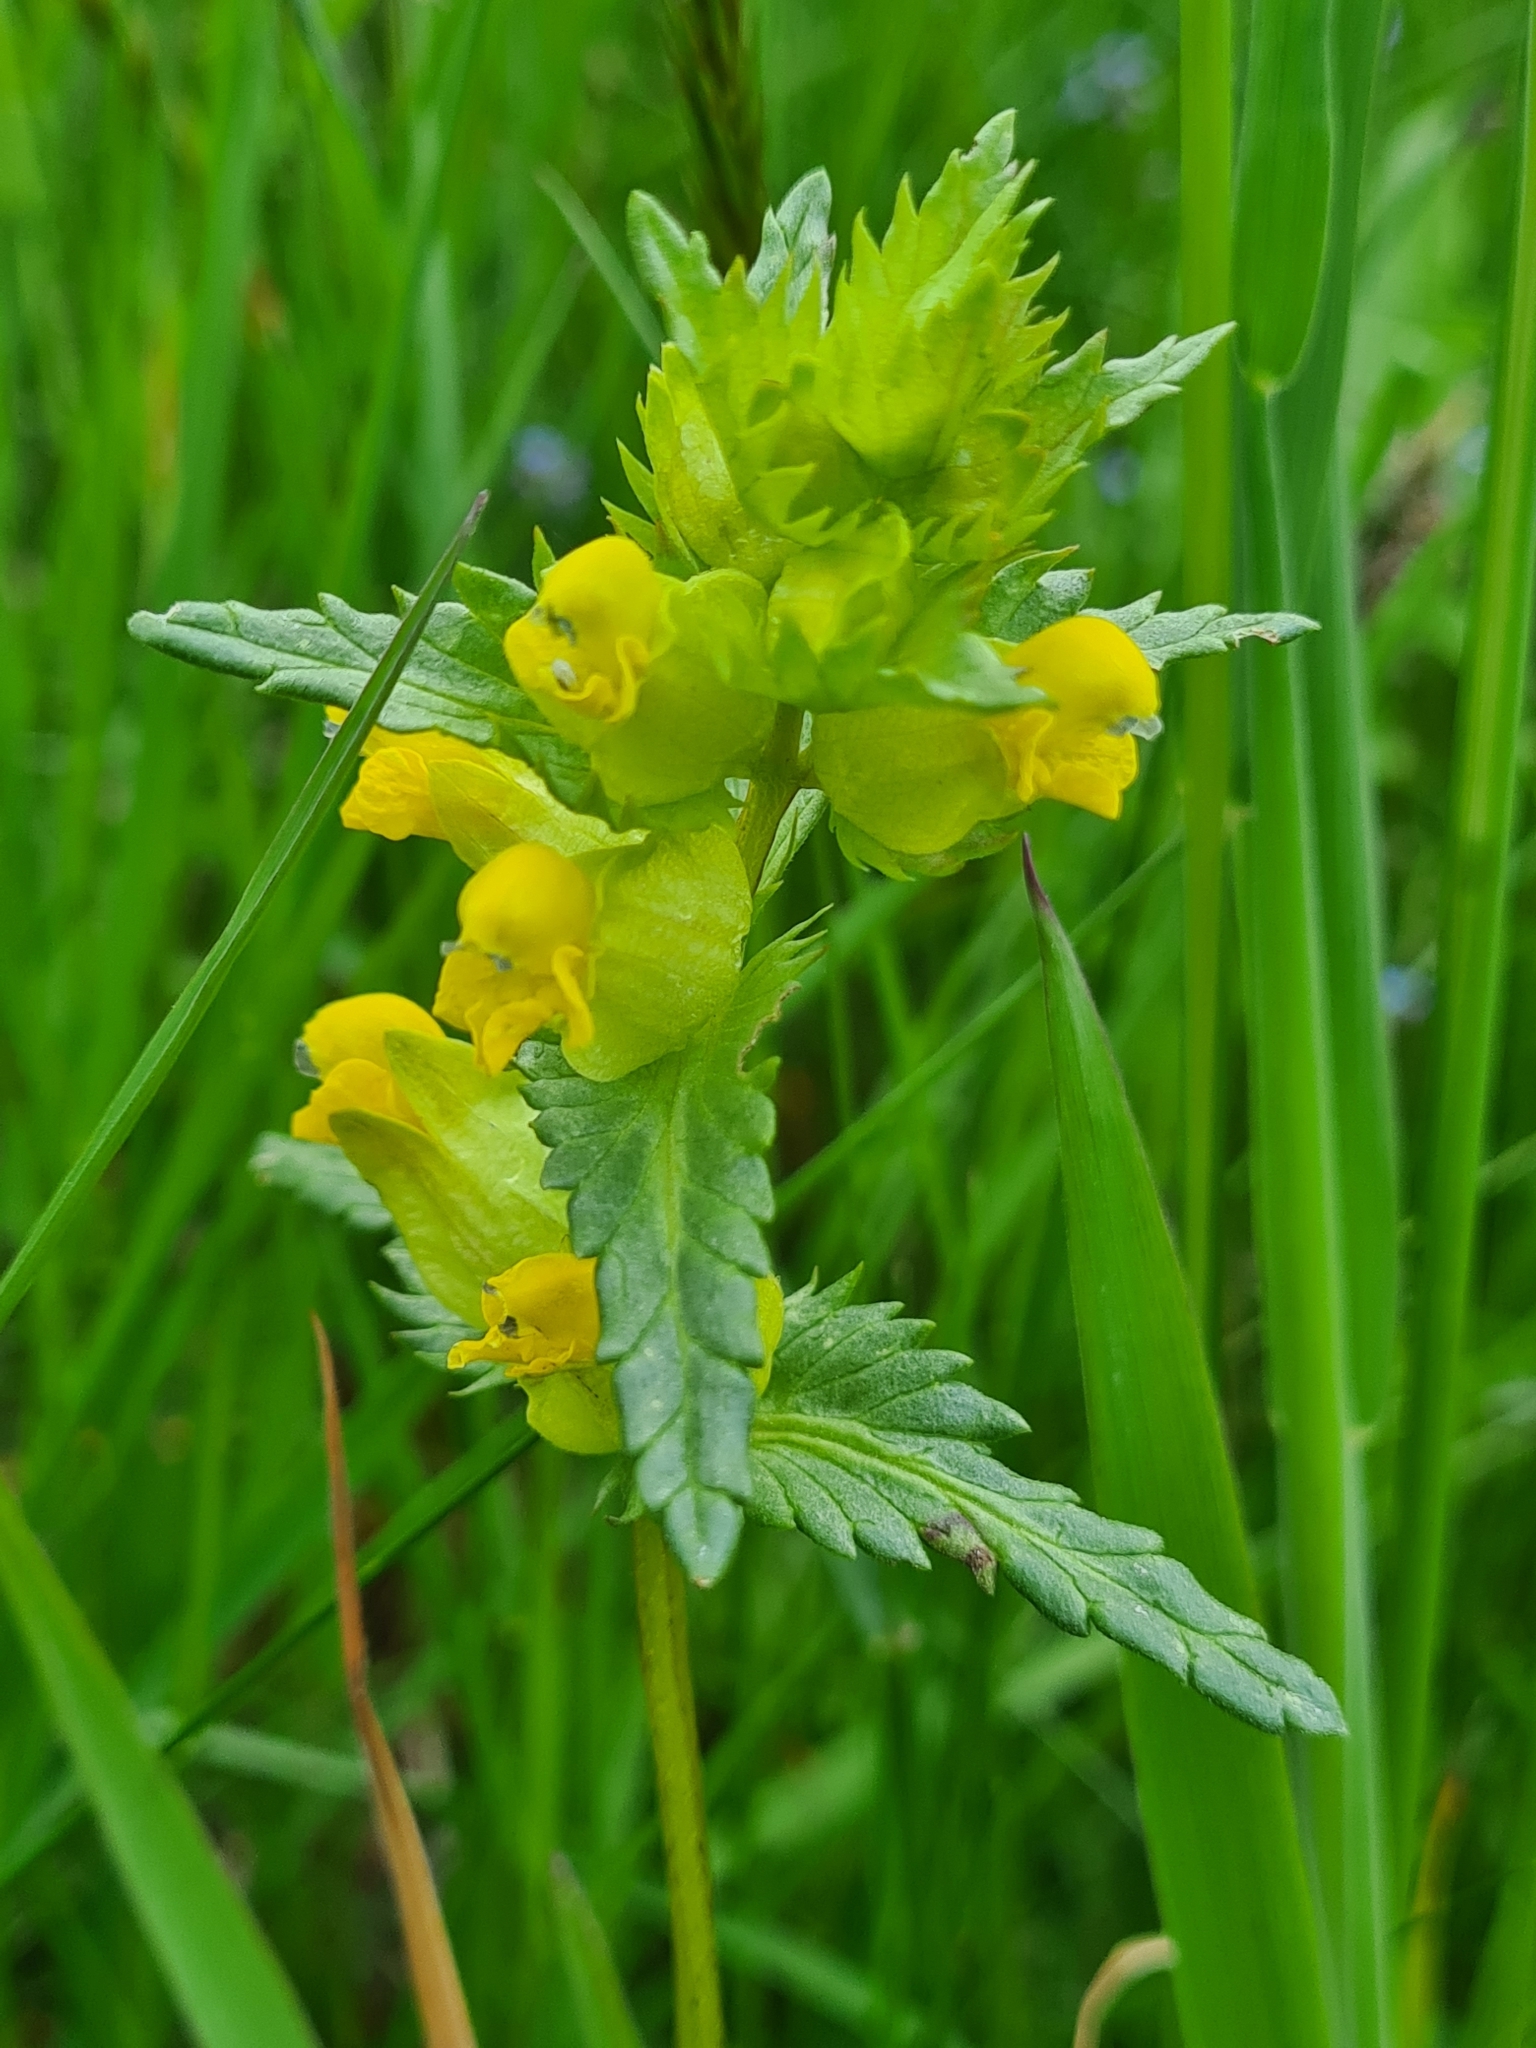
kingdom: Plantae
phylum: Tracheophyta
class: Magnoliopsida
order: Lamiales
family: Orobanchaceae
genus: Rhinanthus
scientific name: Rhinanthus minor
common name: Yellow-rattle
